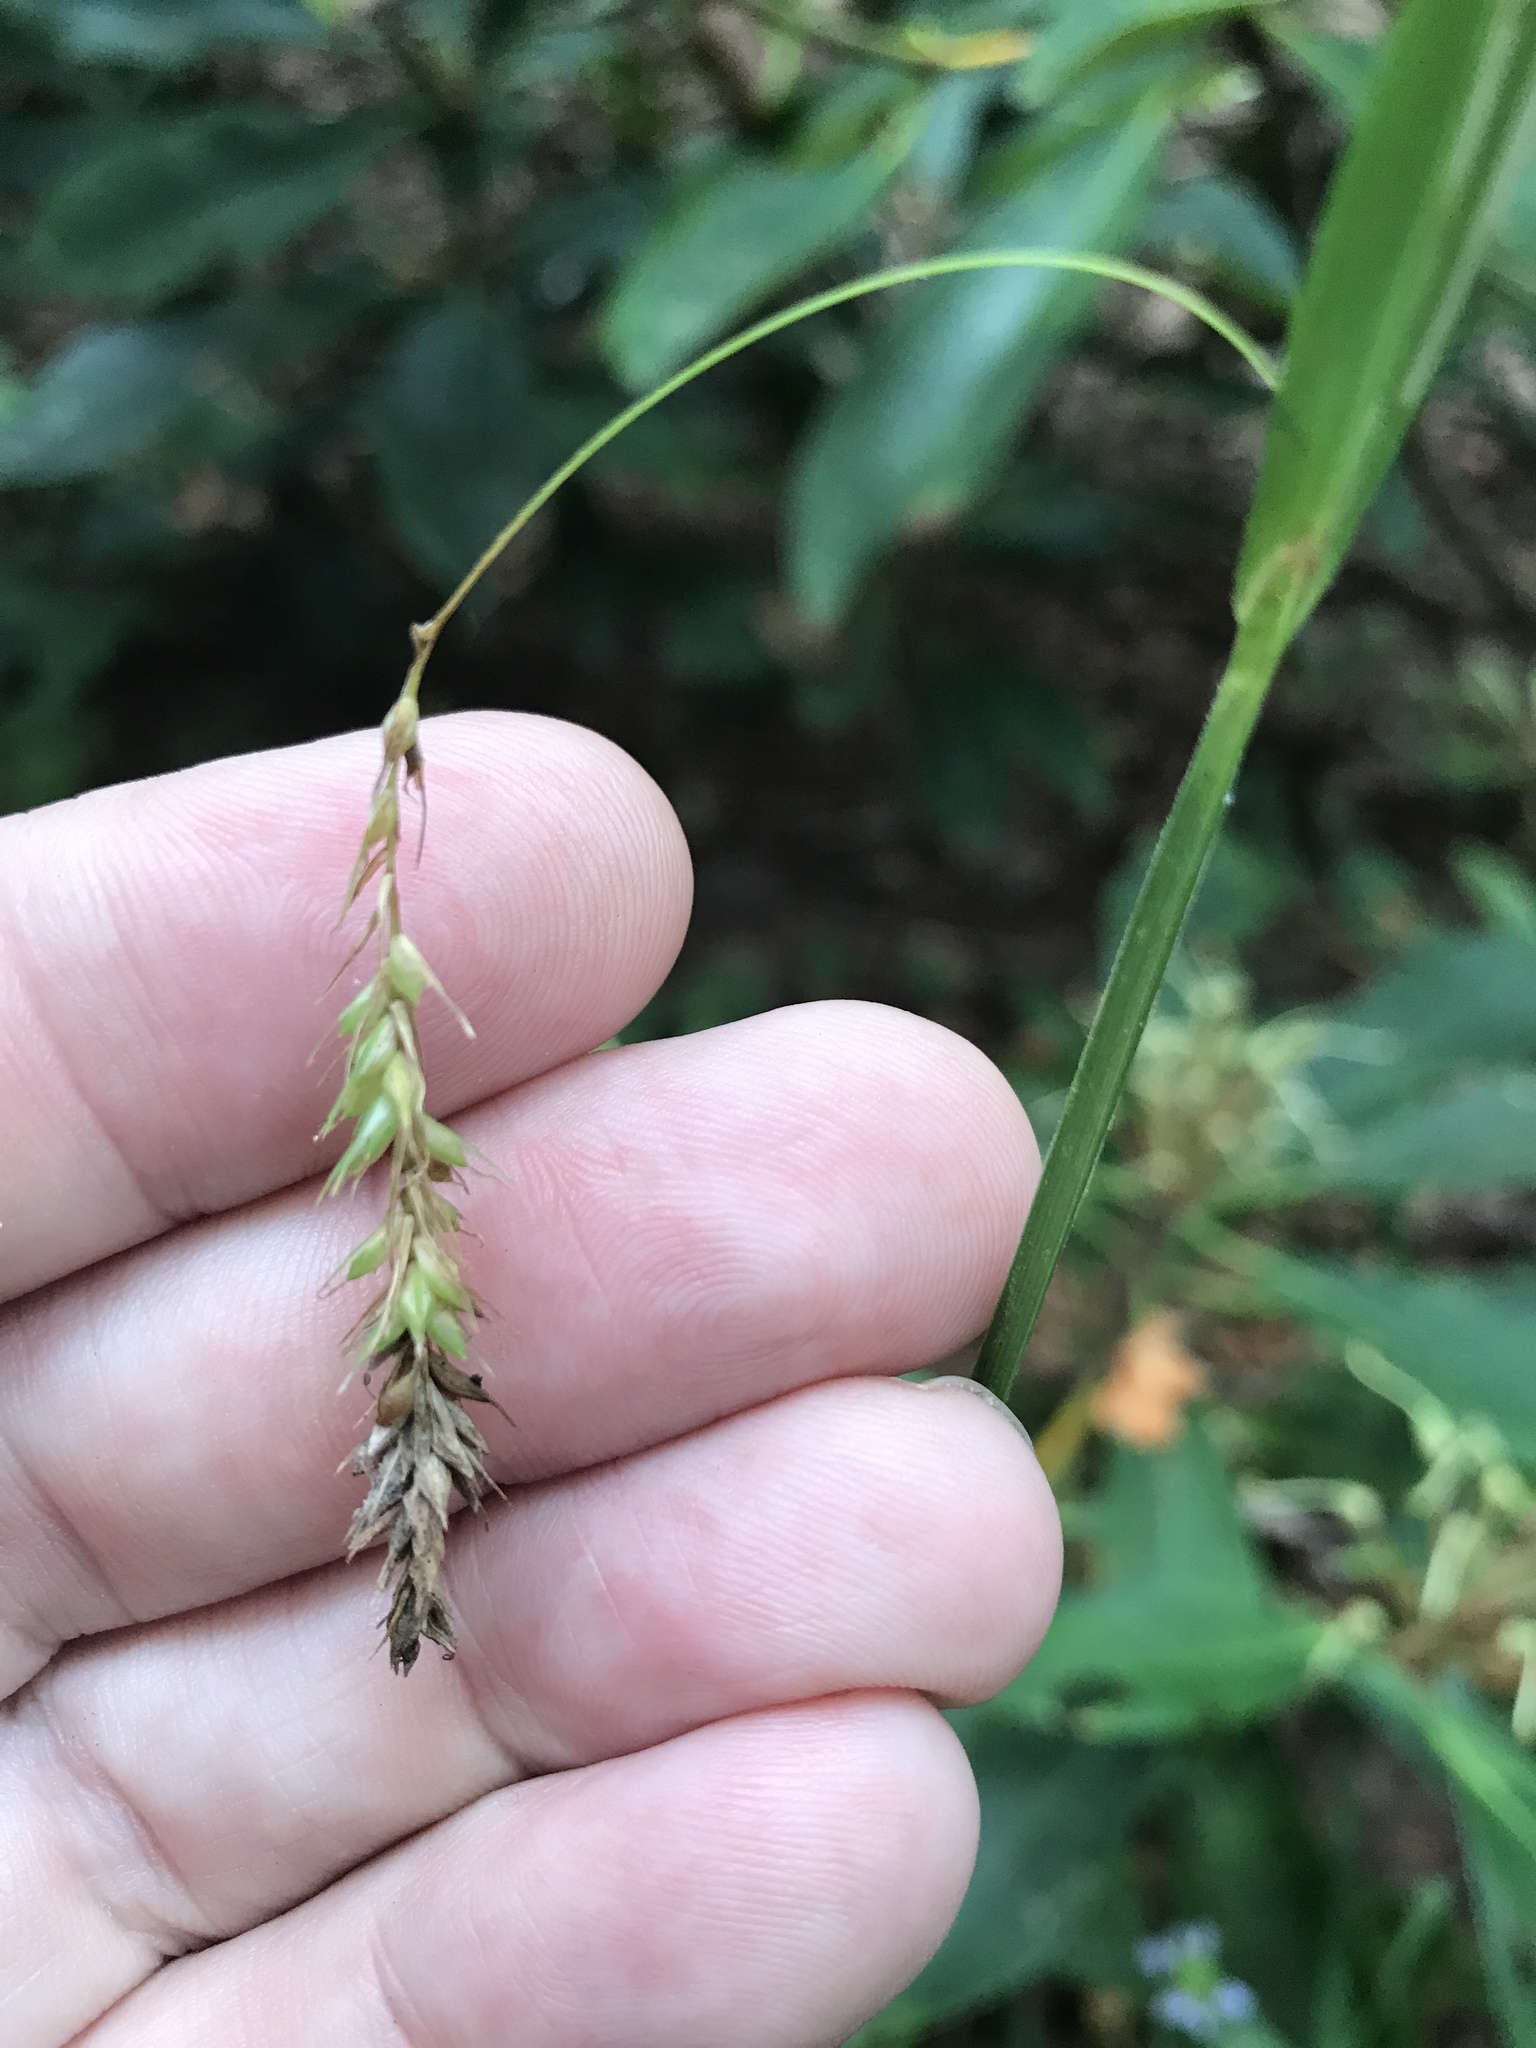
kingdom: Plantae
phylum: Tracheophyta
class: Liliopsida
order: Poales
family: Cyperaceae
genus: Carex
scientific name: Carex gynandra
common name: Nodding sedge
